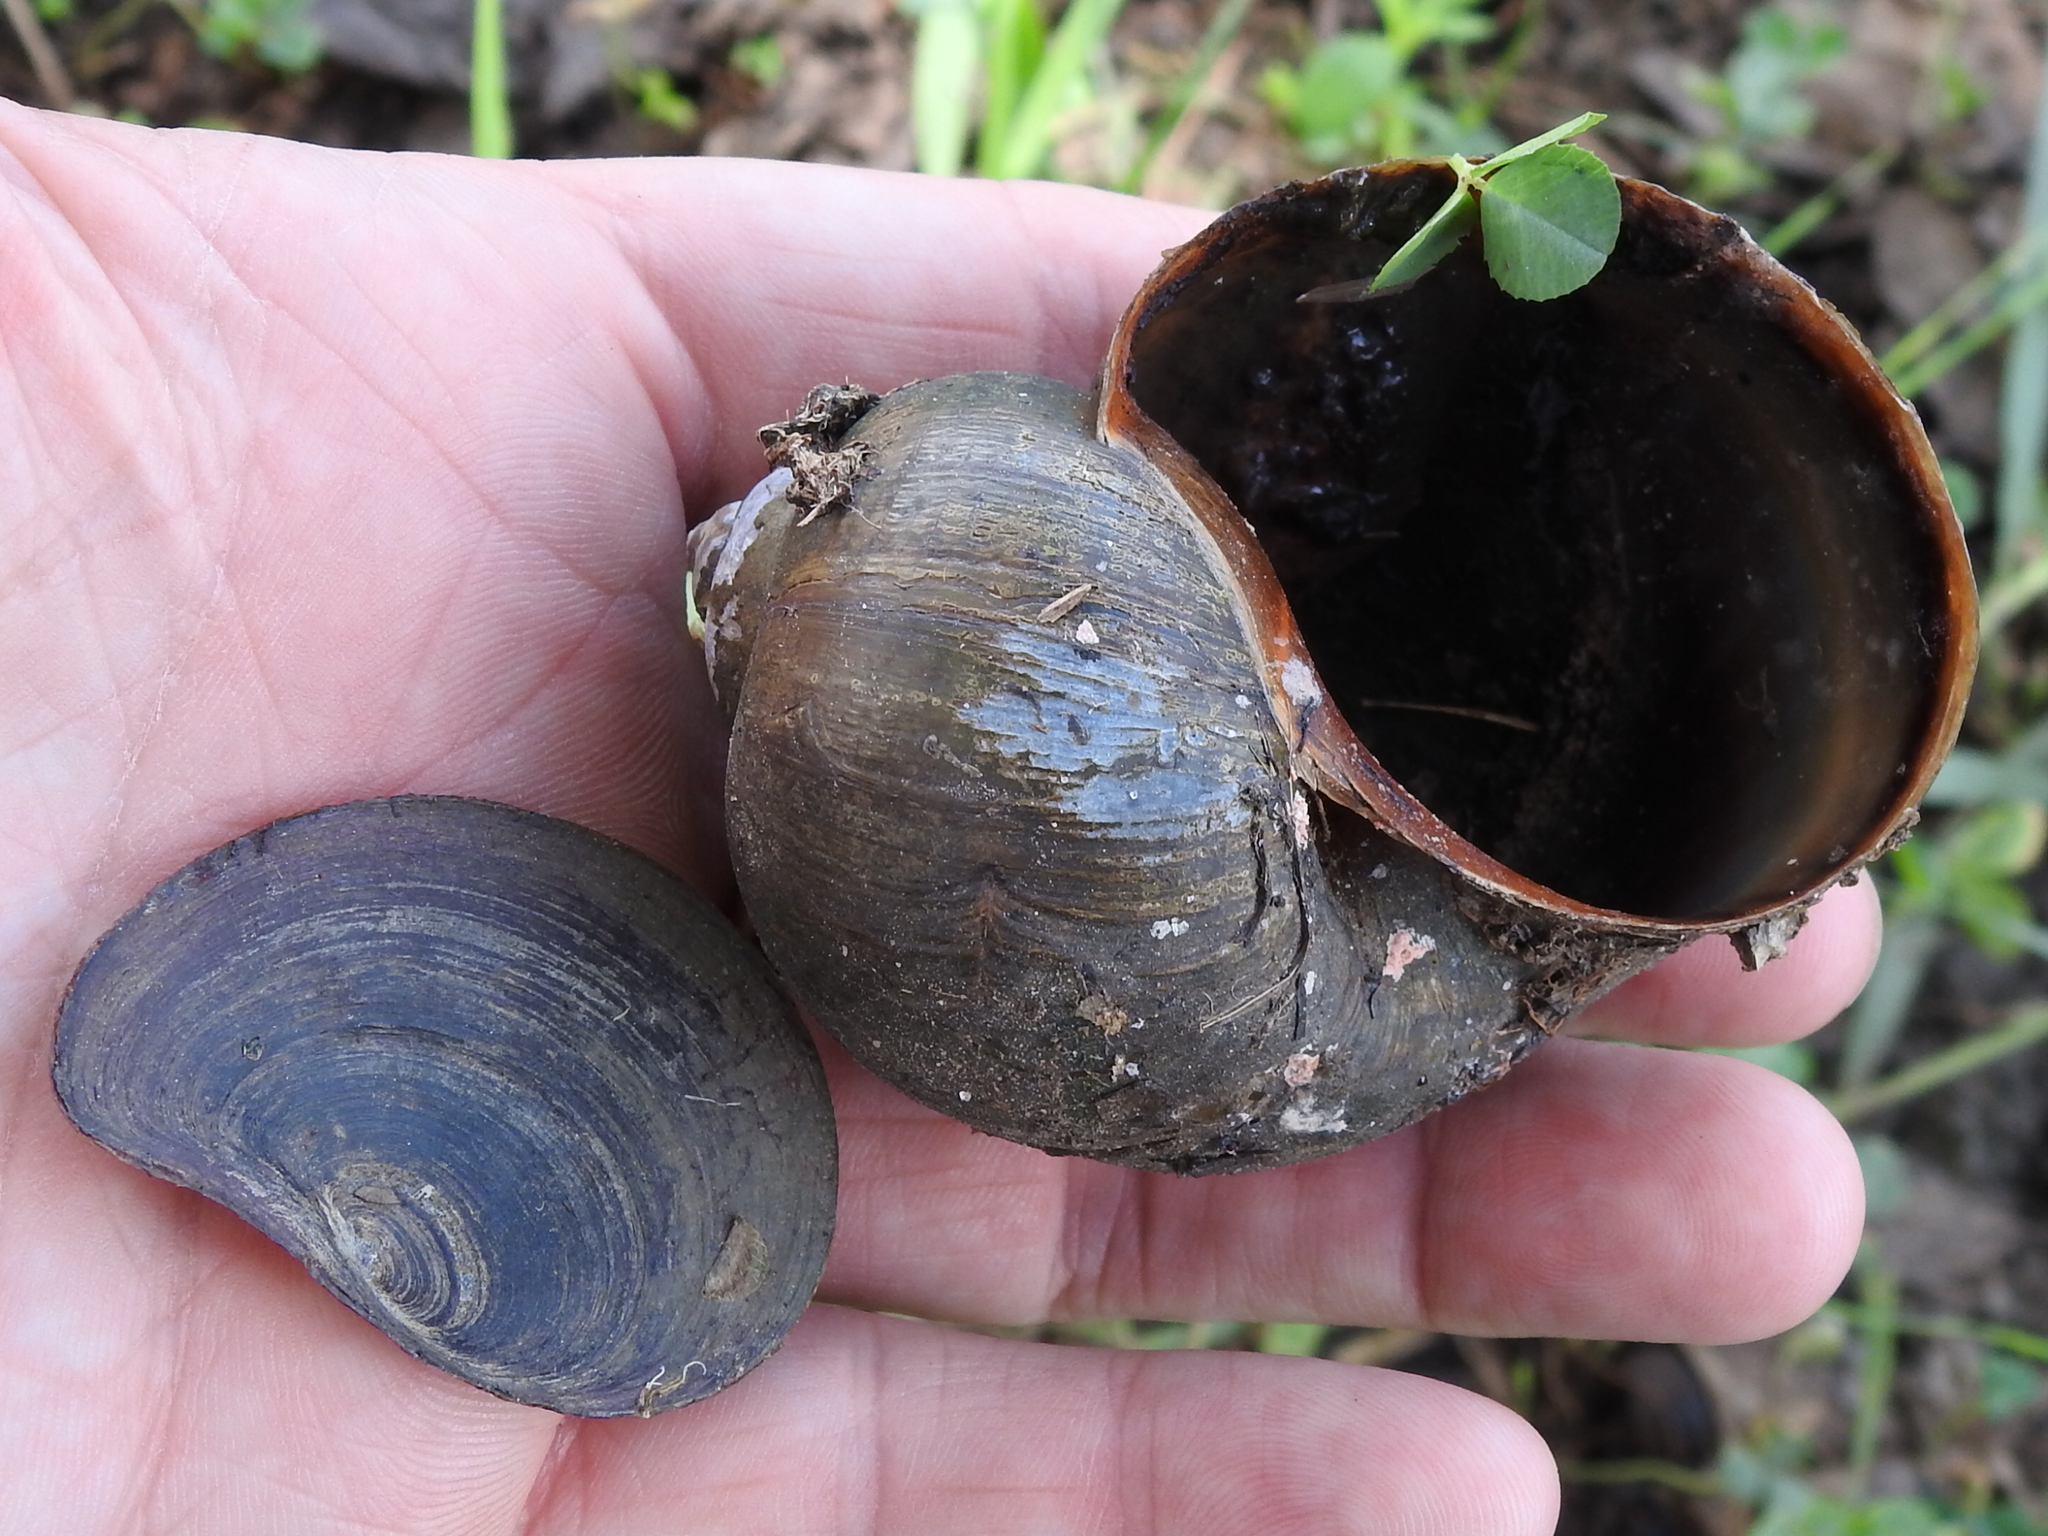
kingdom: Animalia
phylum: Mollusca
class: Gastropoda
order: Architaenioglossa
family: Ampullariidae
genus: Pomacea
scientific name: Pomacea maculata
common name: Giant applesnail
